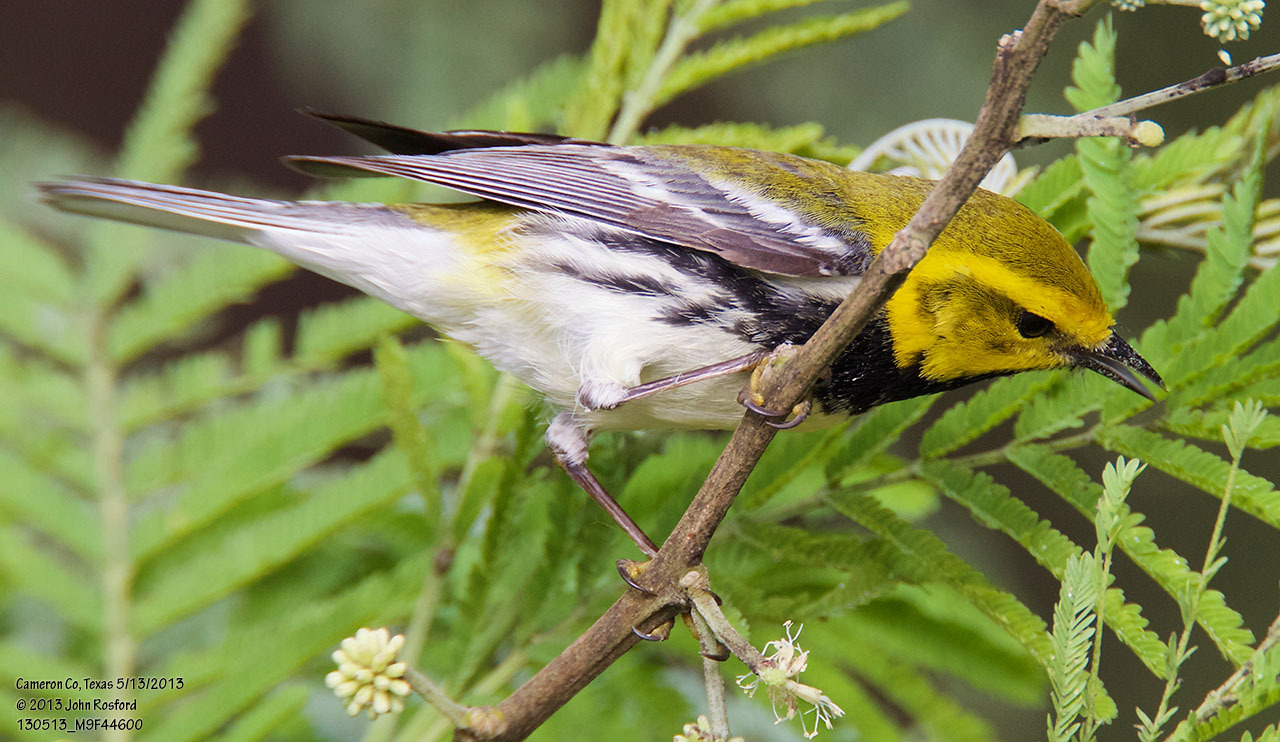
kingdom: Animalia
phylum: Chordata
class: Aves
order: Passeriformes
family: Parulidae
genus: Setophaga
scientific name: Setophaga virens
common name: Black-throated green warbler
